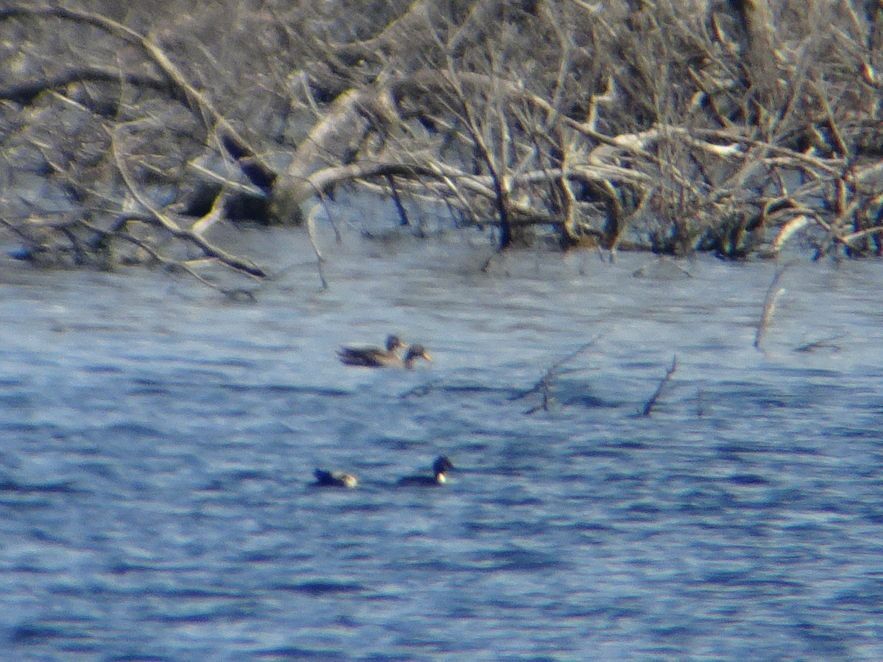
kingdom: Animalia
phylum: Chordata
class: Aves
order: Anseriformes
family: Anatidae
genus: Anas
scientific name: Anas undulata
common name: Yellow-billed duck
